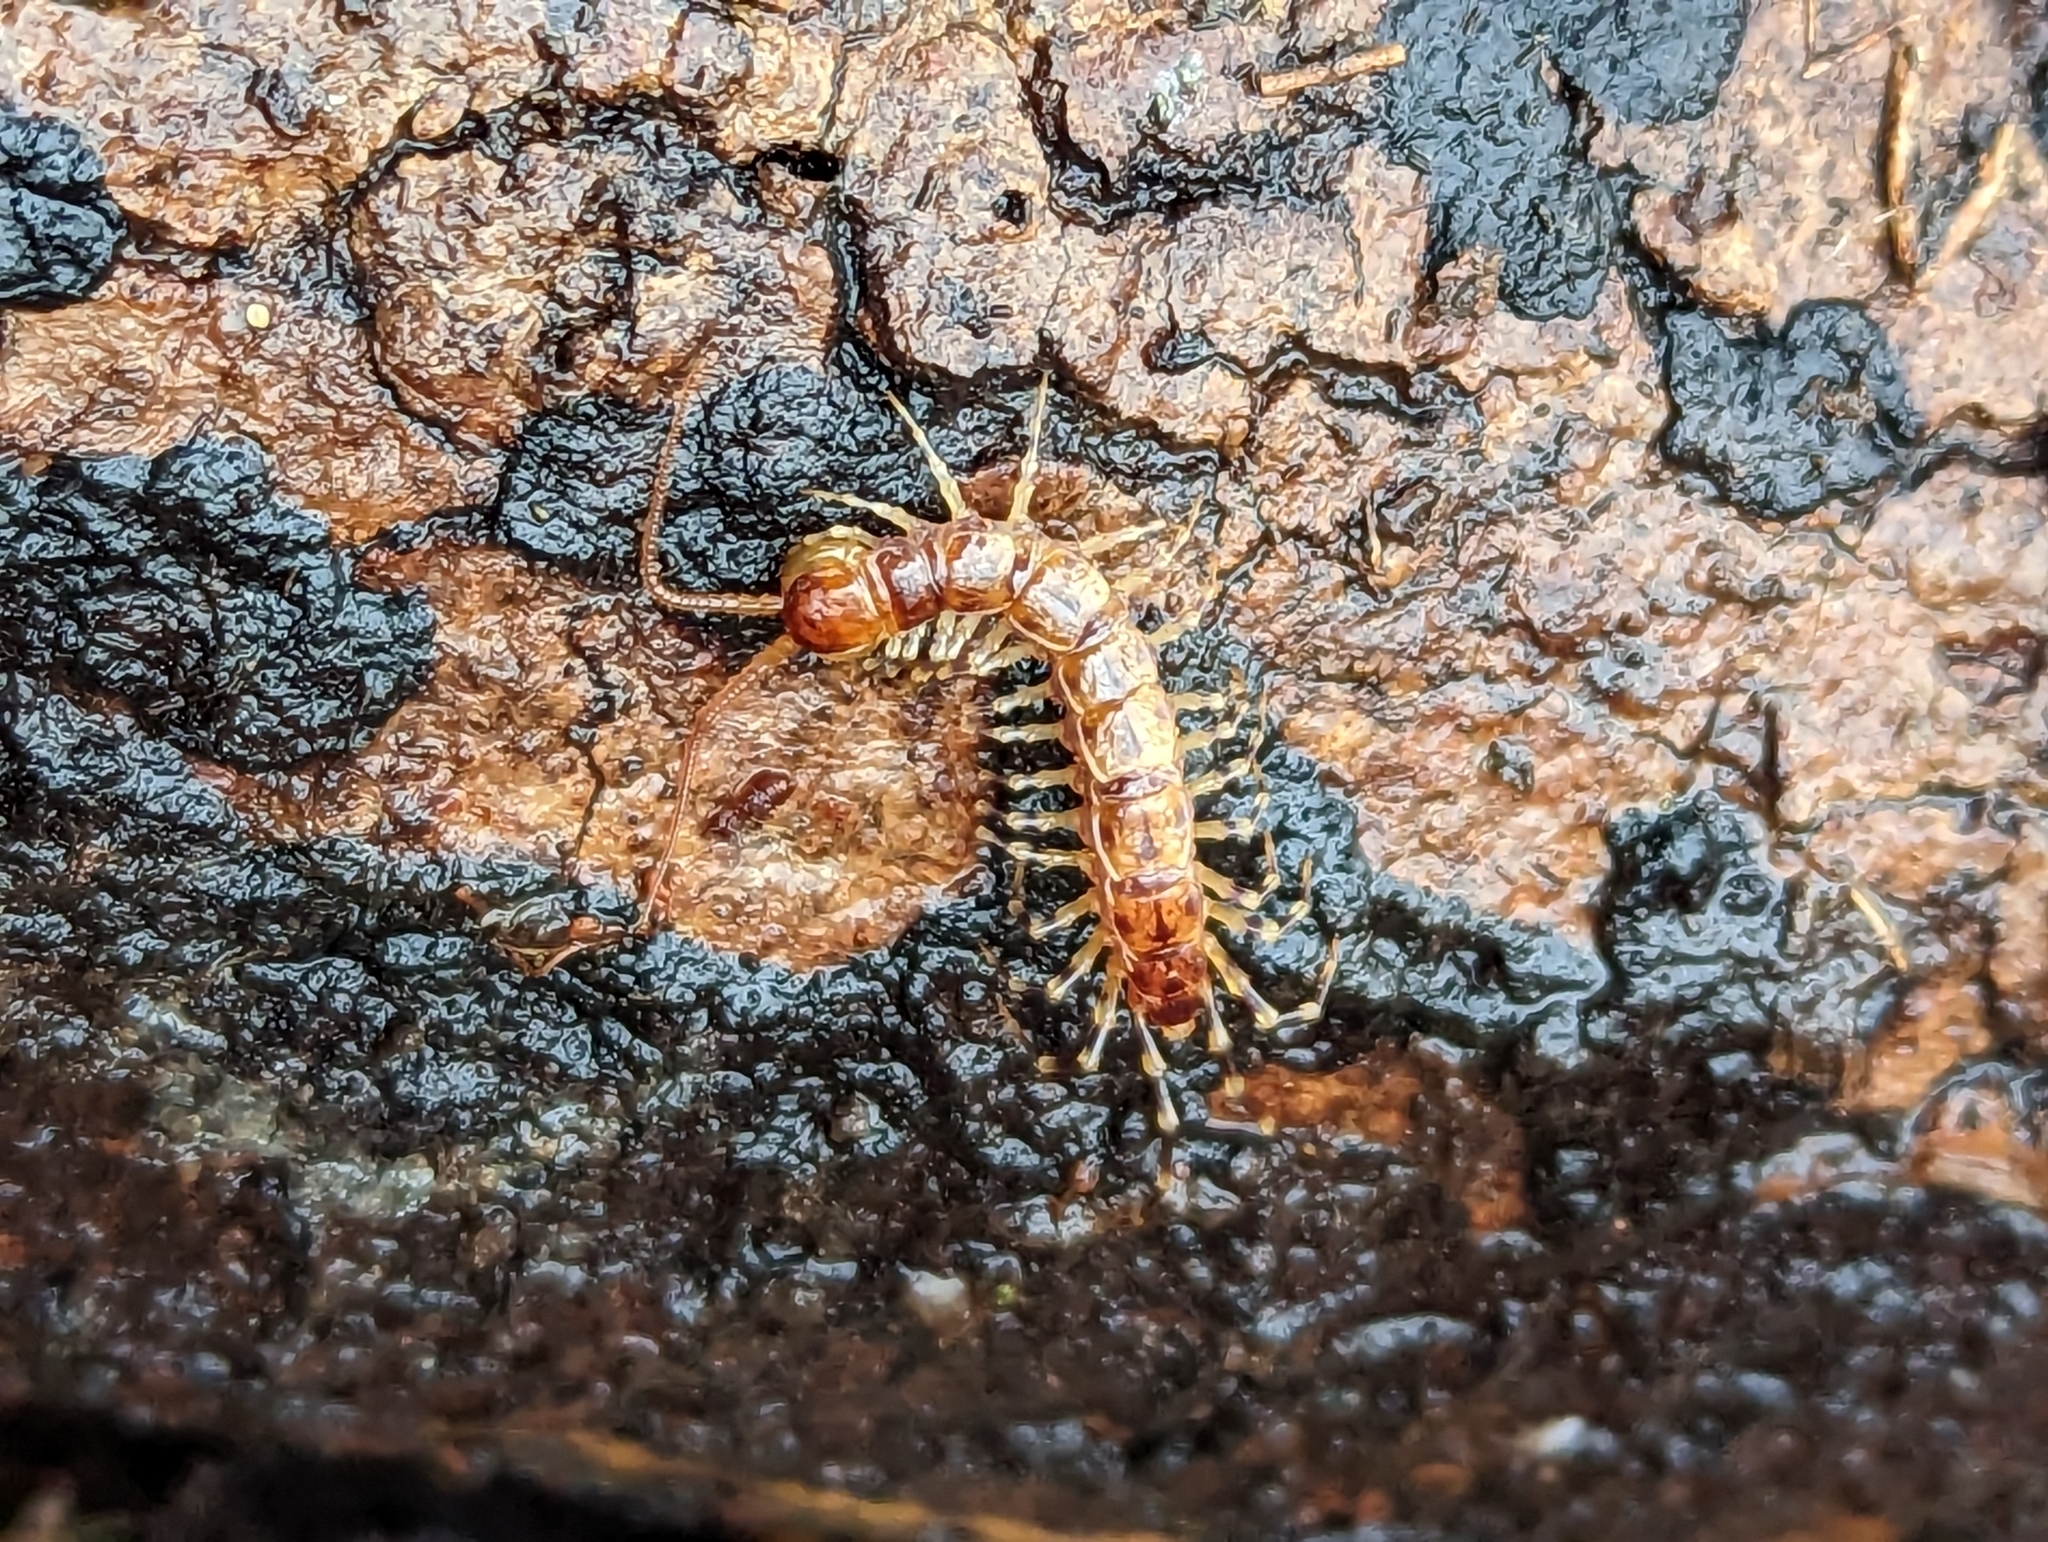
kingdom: Animalia
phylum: Arthropoda
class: Chilopoda
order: Lithobiomorpha
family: Lithobiidae
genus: Lithobius
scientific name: Lithobius variegatus
